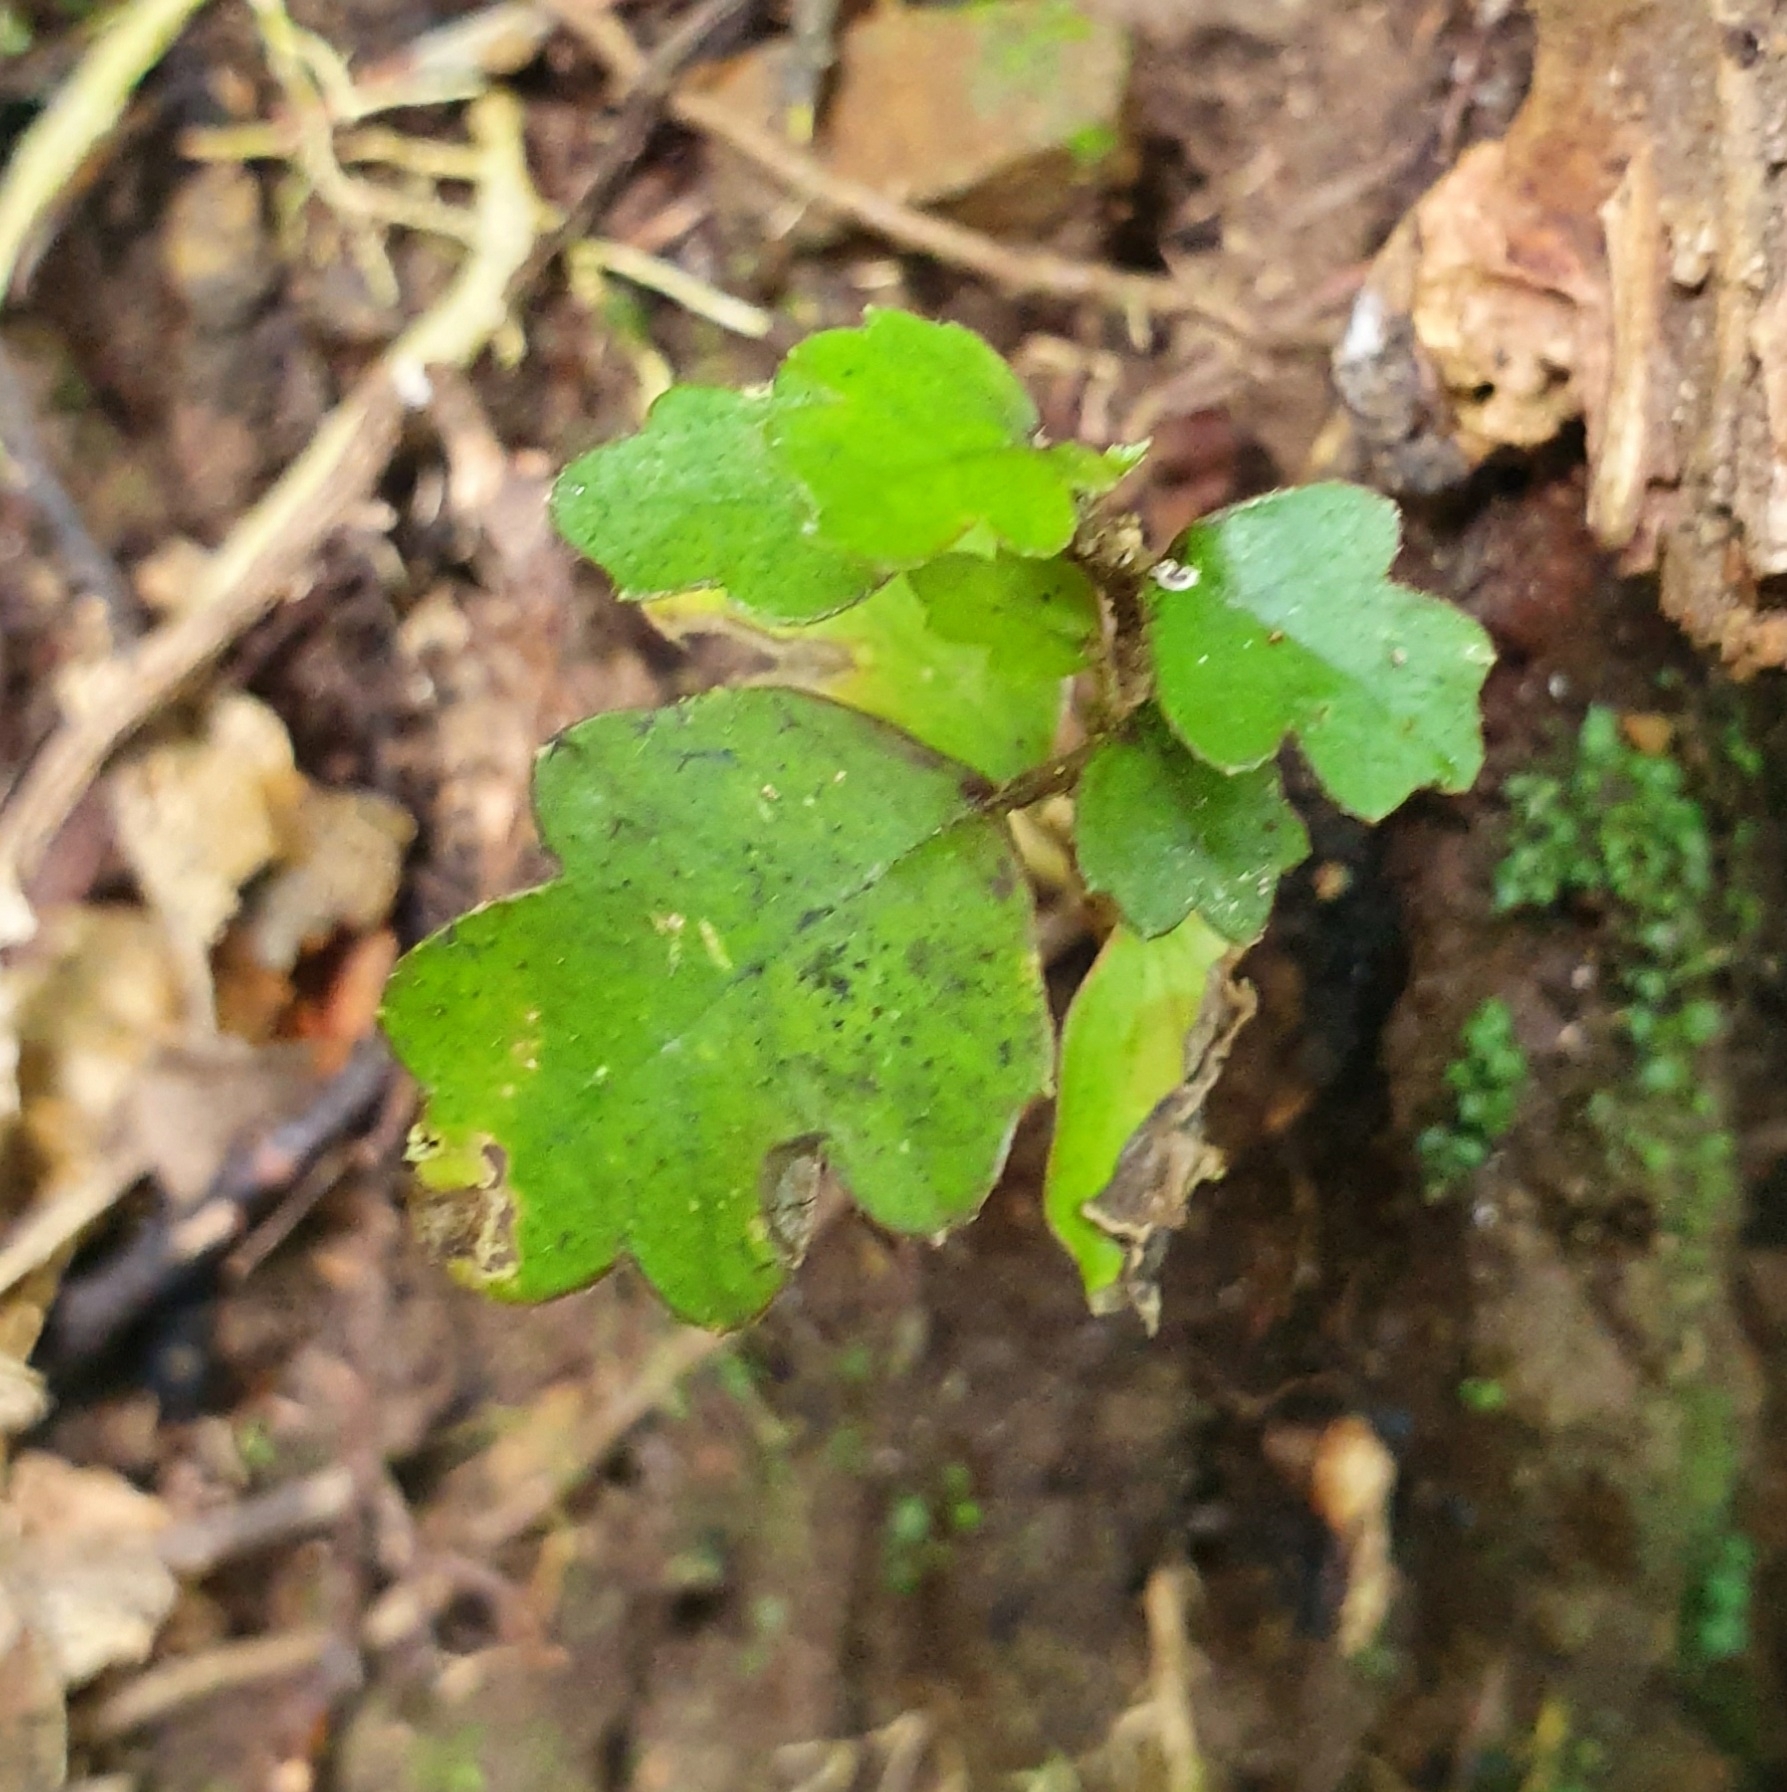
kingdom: Plantae
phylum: Tracheophyta
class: Magnoliopsida
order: Apiales
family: Pennantiaceae
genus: Pennantia
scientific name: Pennantia corymbosa
